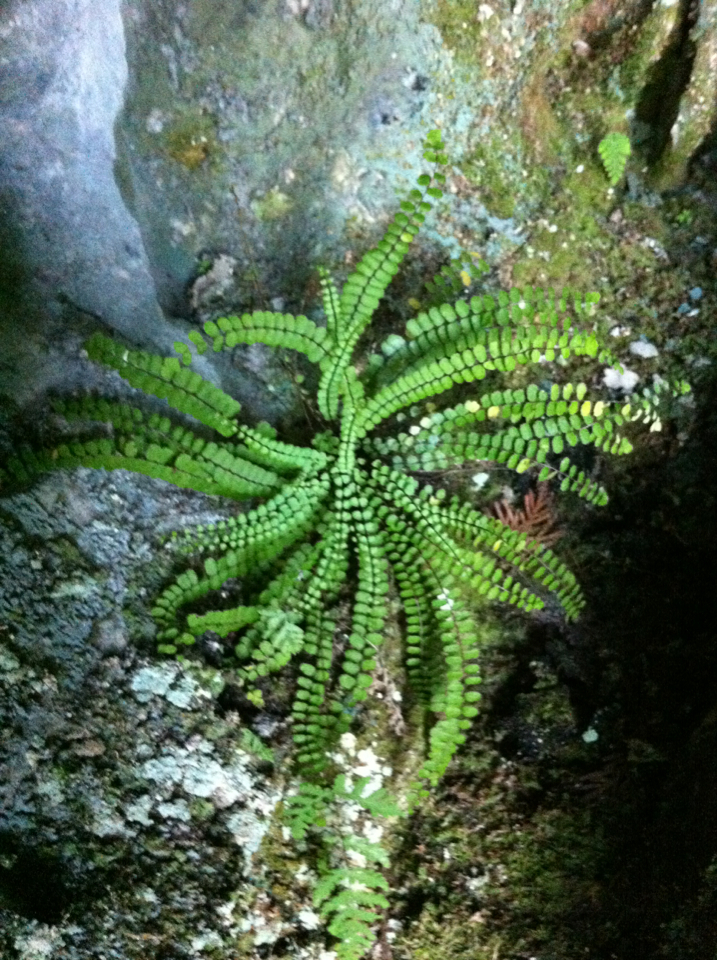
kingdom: Plantae
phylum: Tracheophyta
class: Polypodiopsida
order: Polypodiales
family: Aspleniaceae
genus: Asplenium
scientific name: Asplenium quadrivalens
